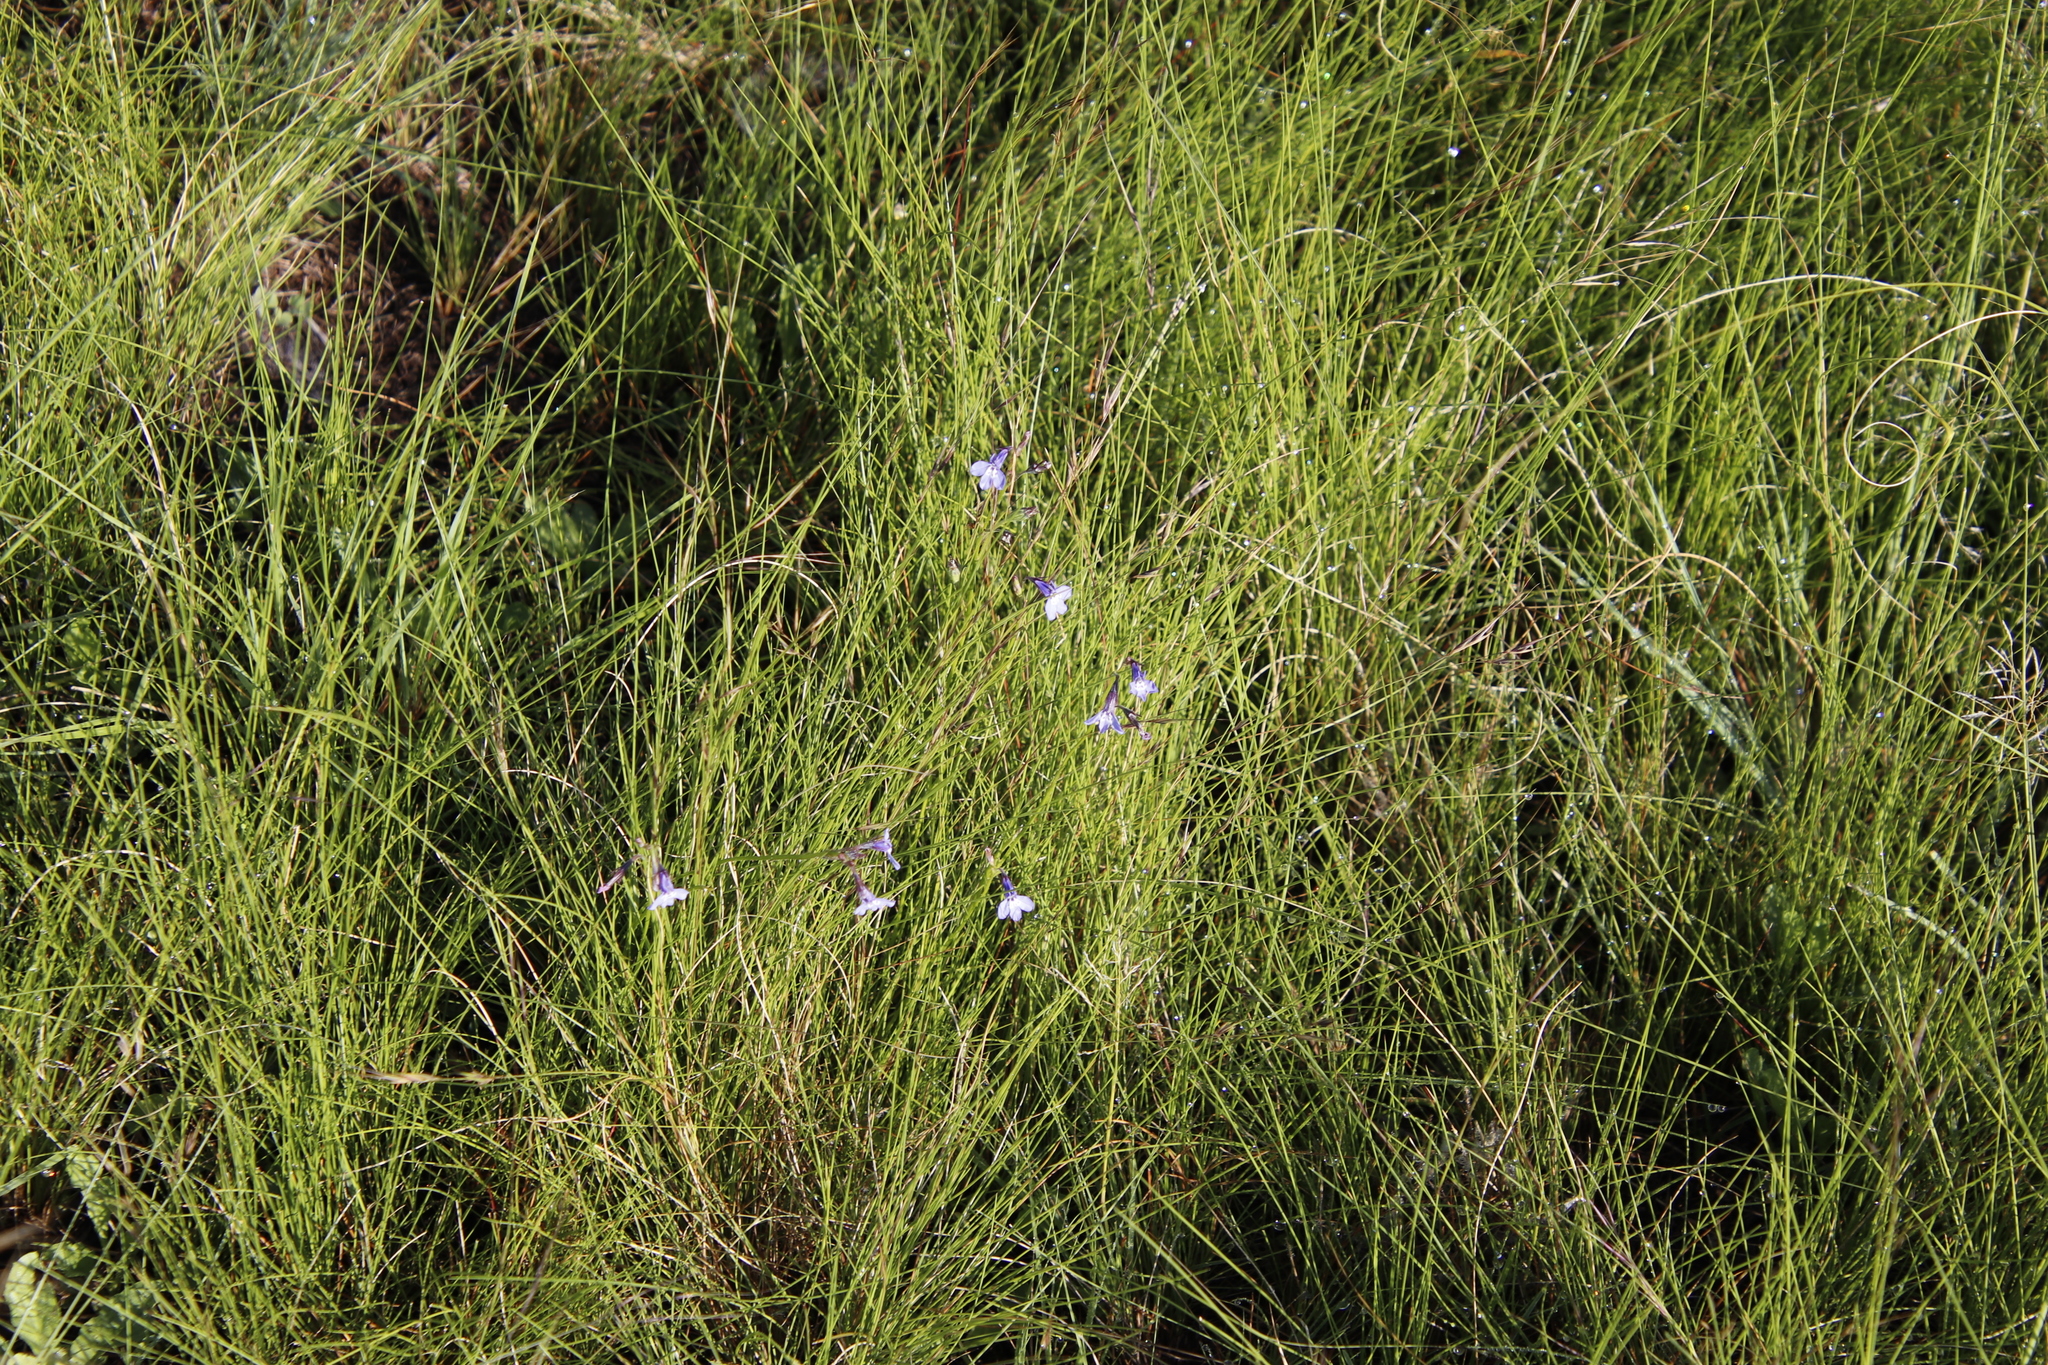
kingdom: Plantae
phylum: Tracheophyta
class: Magnoliopsida
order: Asterales
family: Campanulaceae
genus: Lobelia
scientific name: Lobelia flaccida
